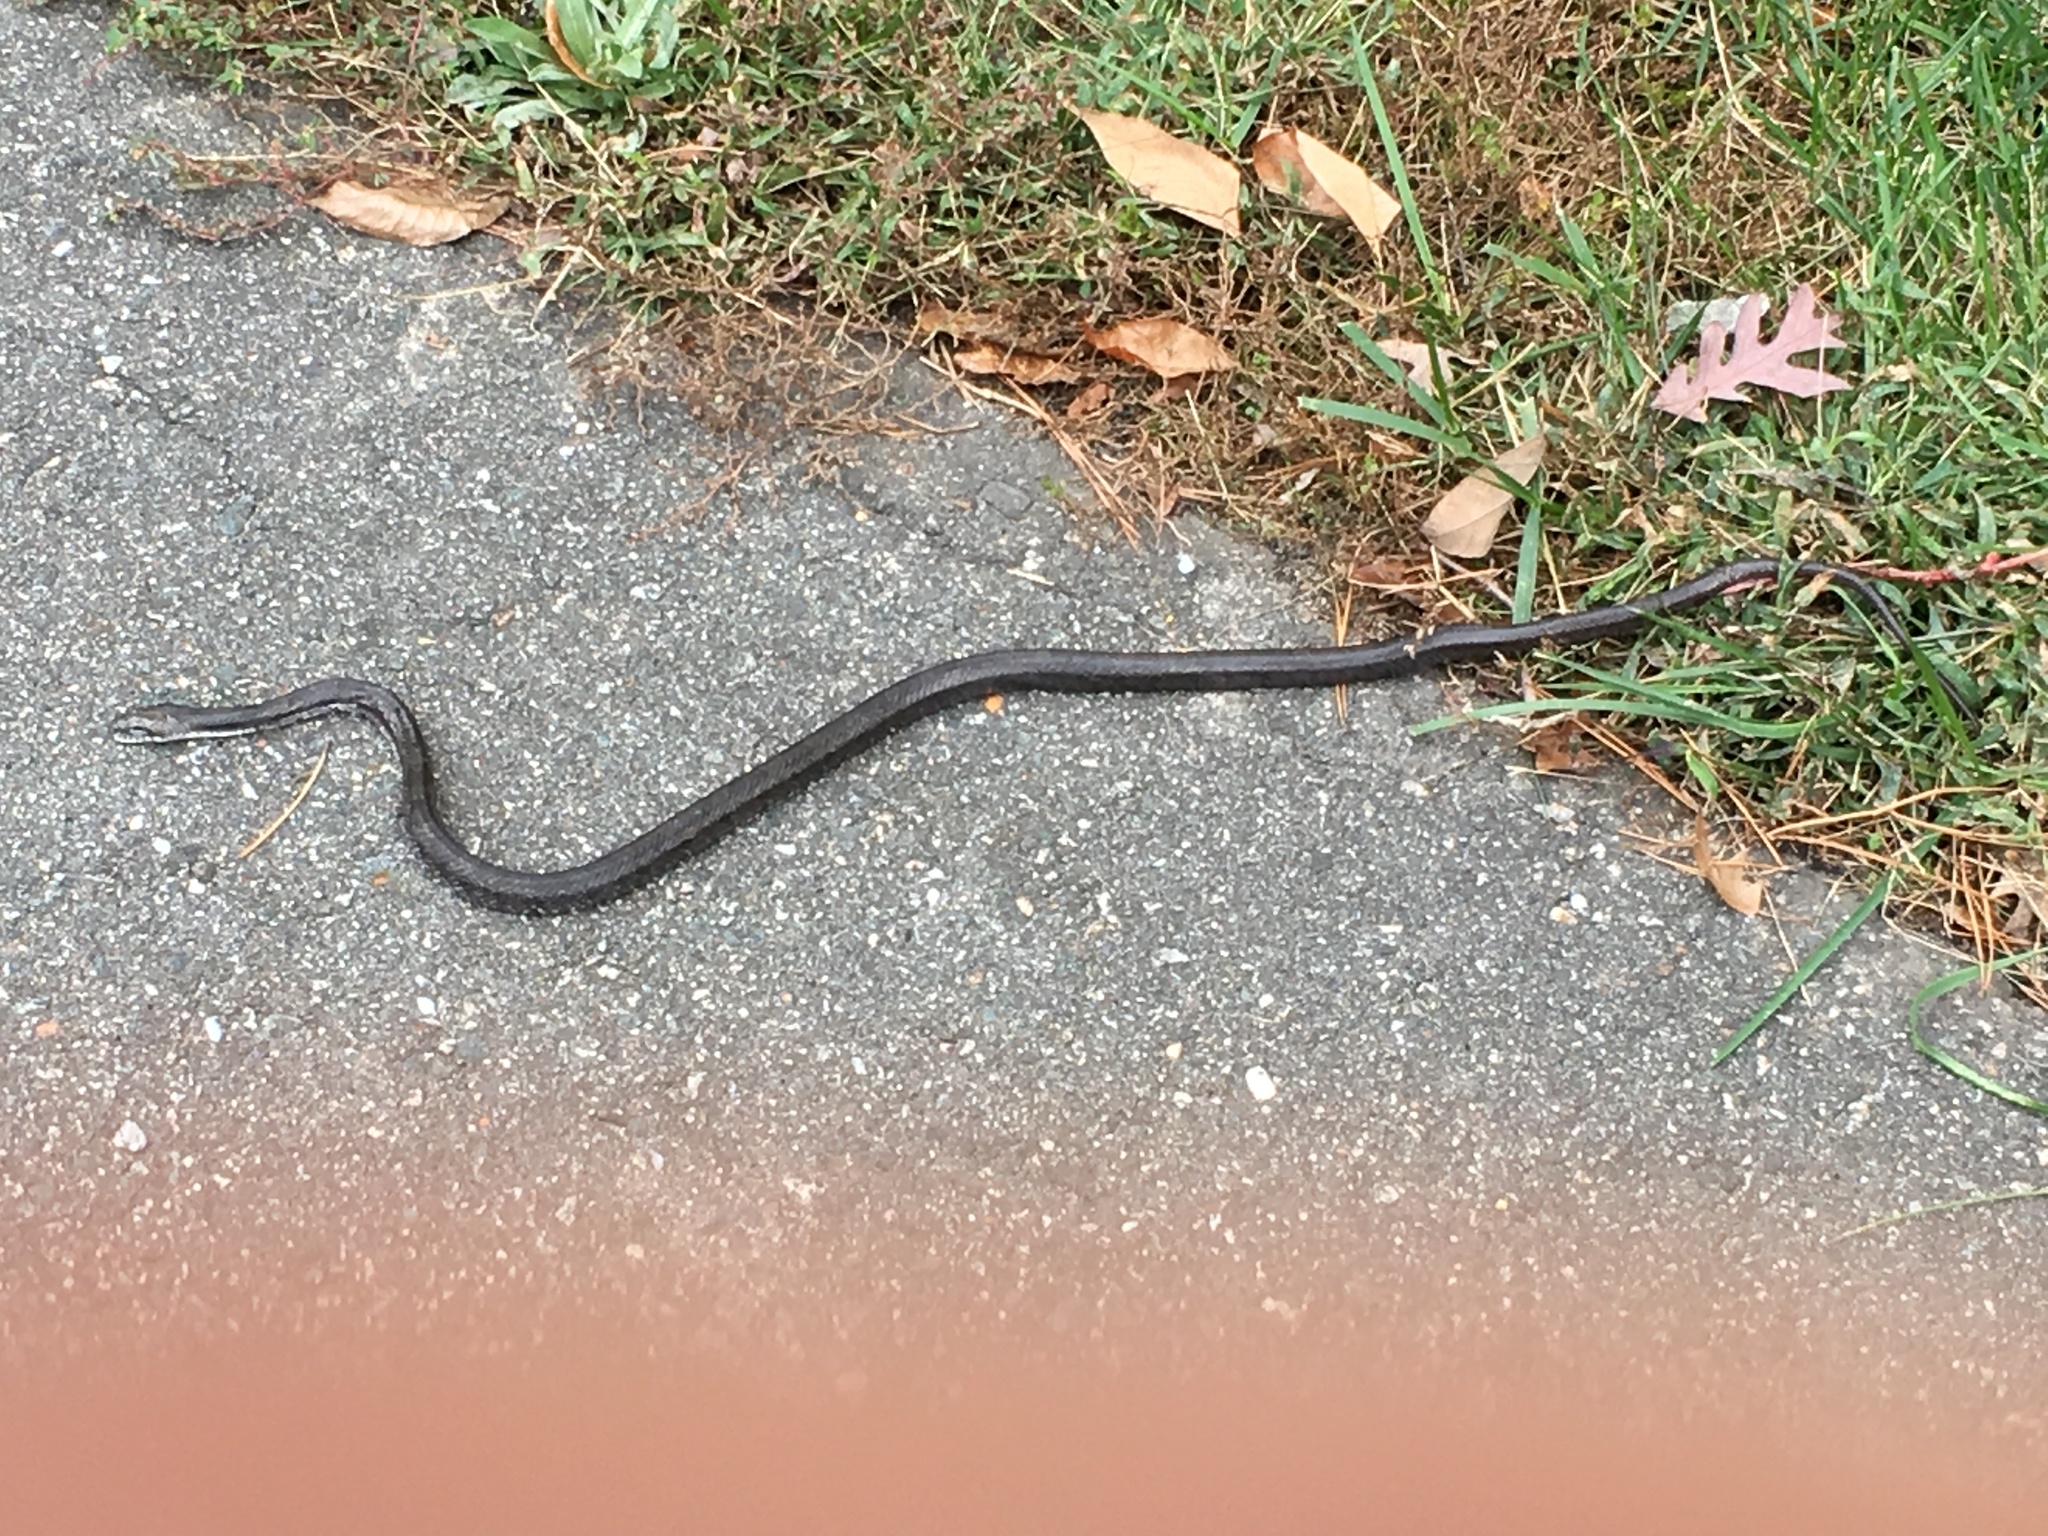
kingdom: Animalia
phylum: Chordata
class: Squamata
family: Colubridae
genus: Pantherophis
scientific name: Pantherophis alleghaniensis
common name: Eastern rat snake
